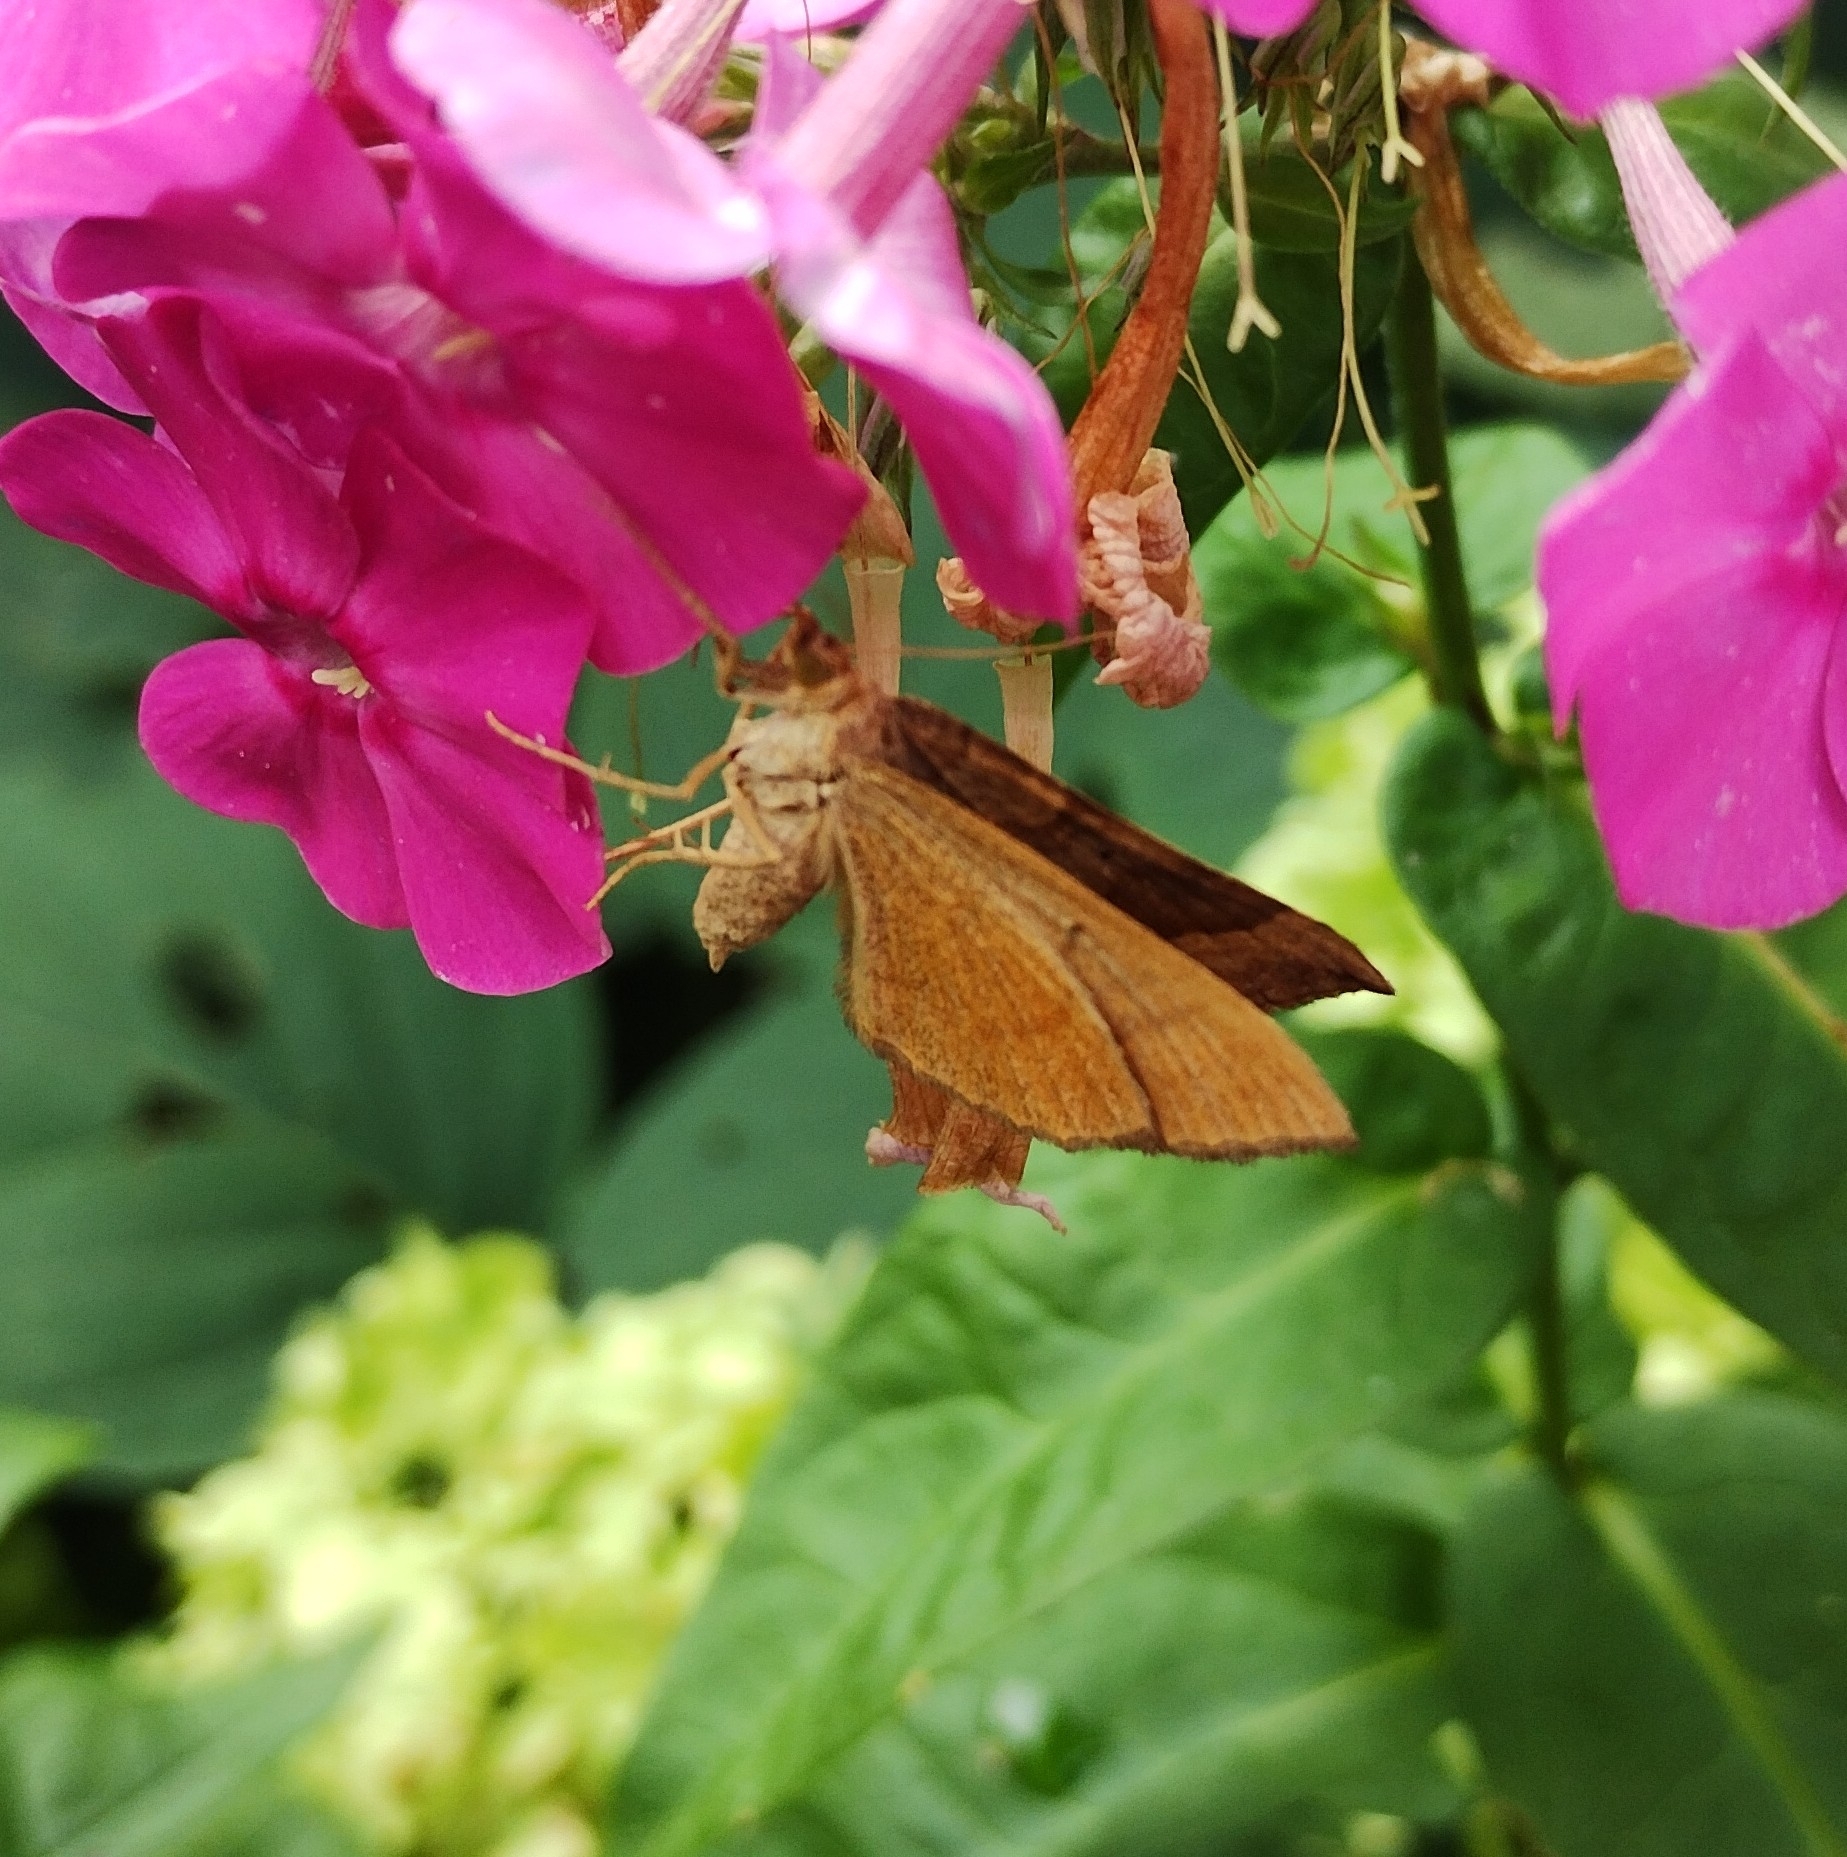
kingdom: Animalia
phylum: Arthropoda
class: Insecta
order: Lepidoptera
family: Geometridae
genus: Scotopteryx
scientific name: Scotopteryx chenopodiata
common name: Shaded broad-bar
